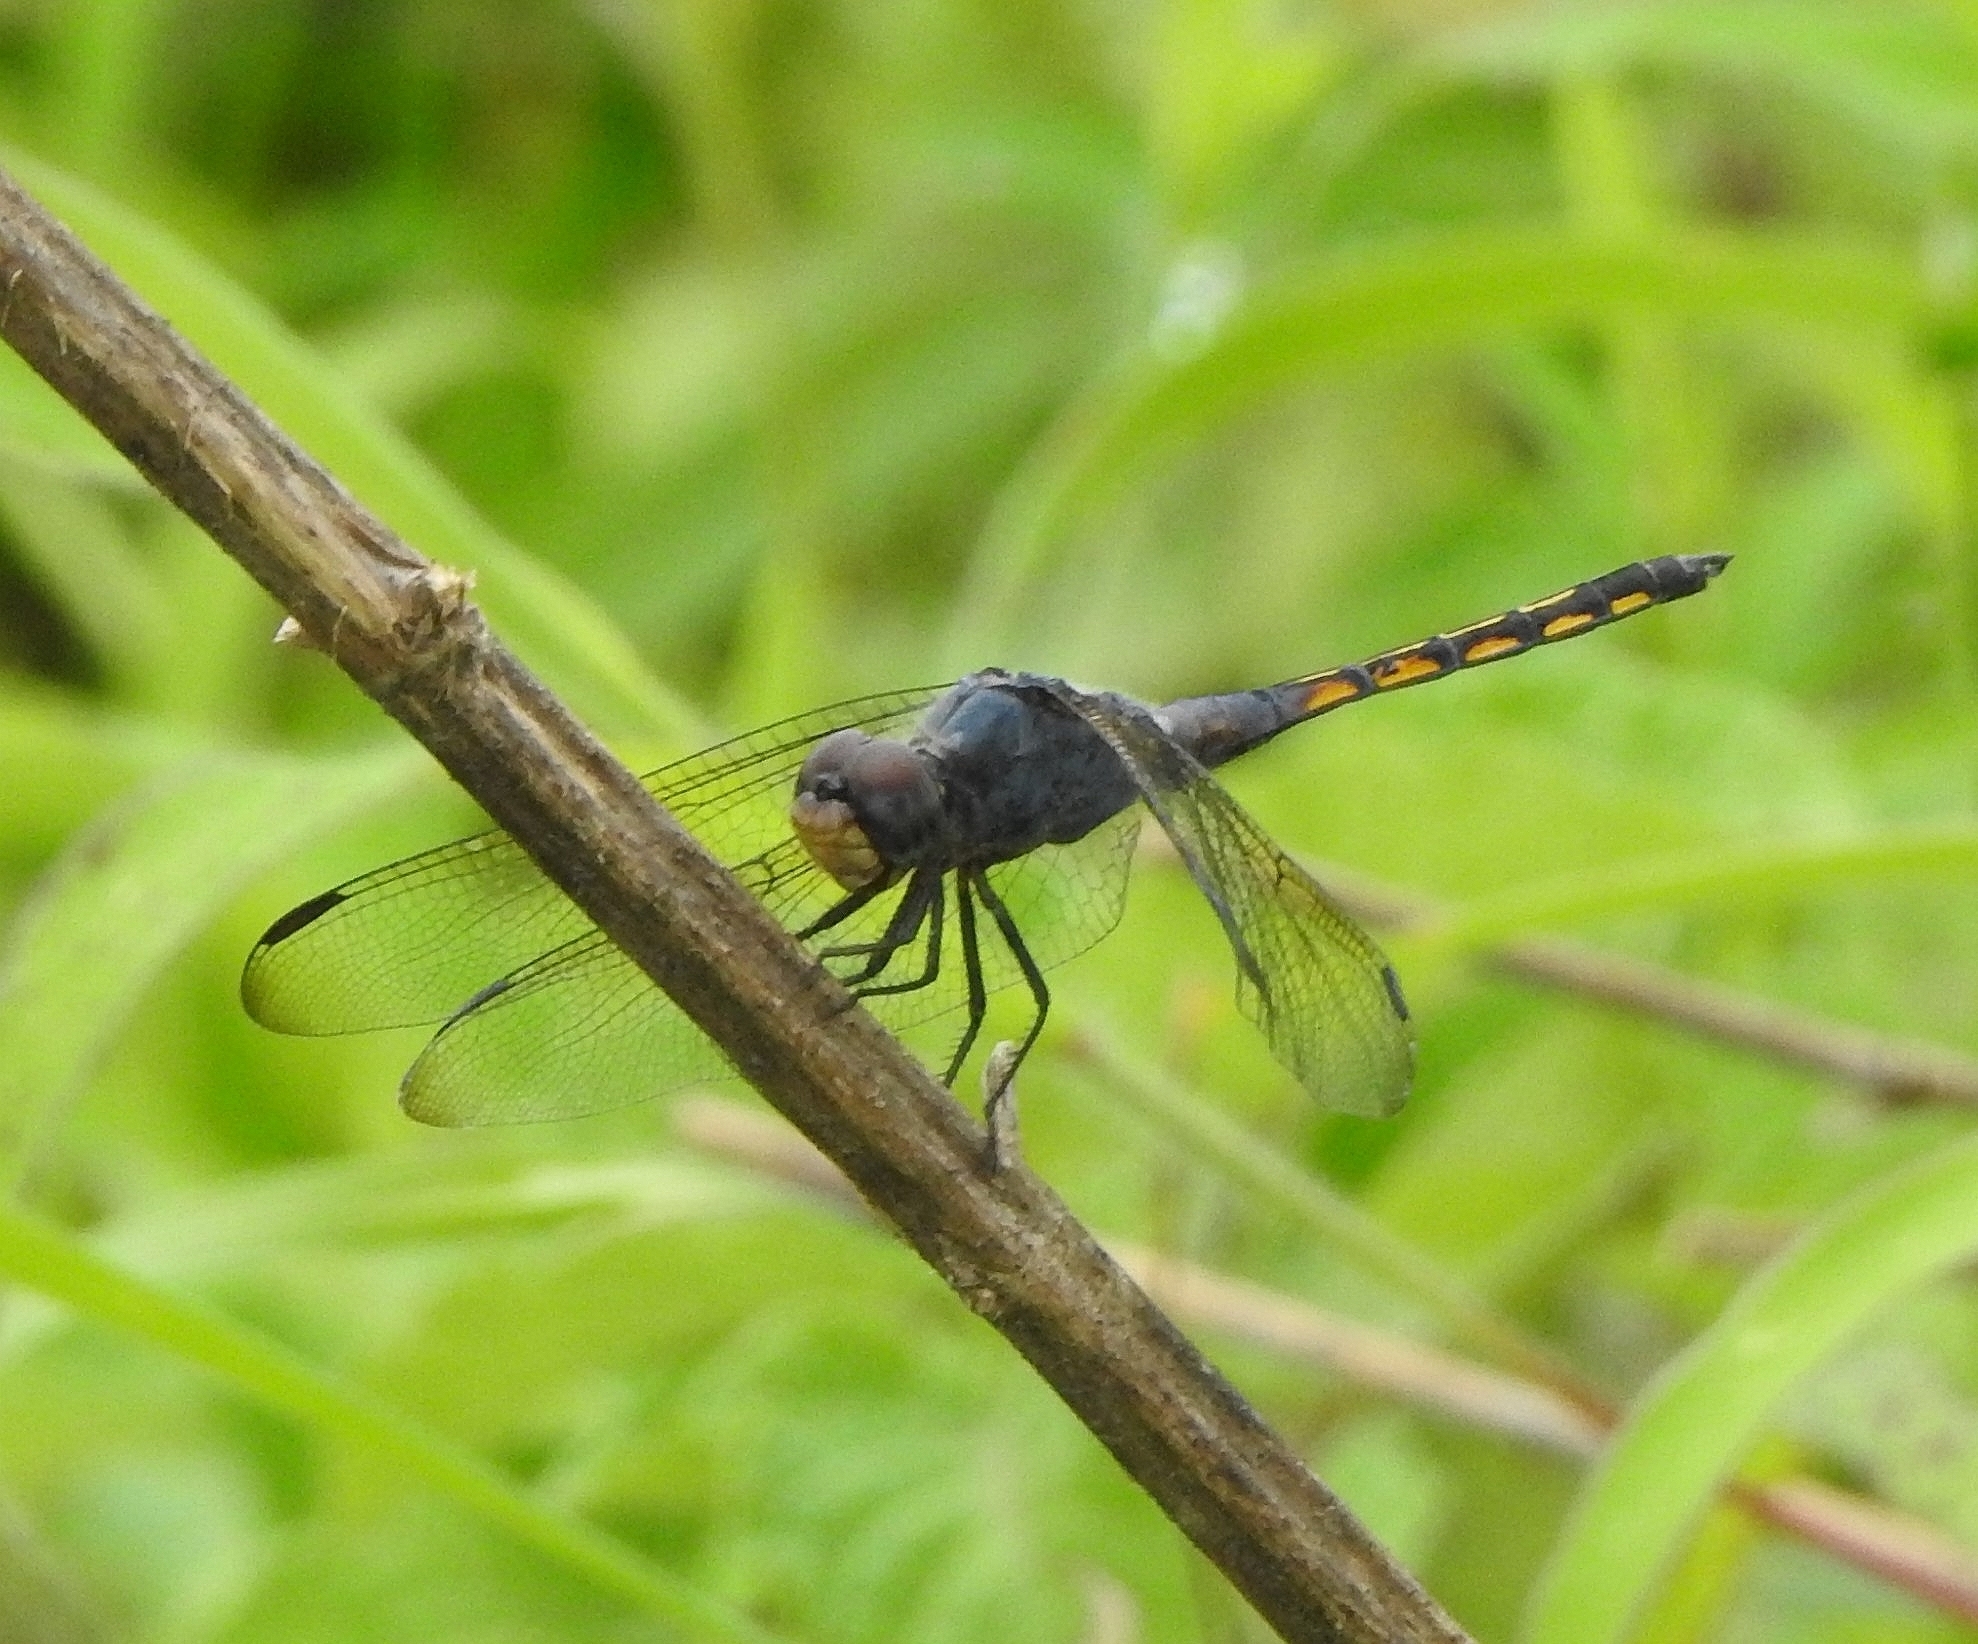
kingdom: Animalia
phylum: Arthropoda
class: Insecta
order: Odonata
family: Libellulidae
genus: Potamarcha
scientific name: Potamarcha congener
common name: Blue chaser
